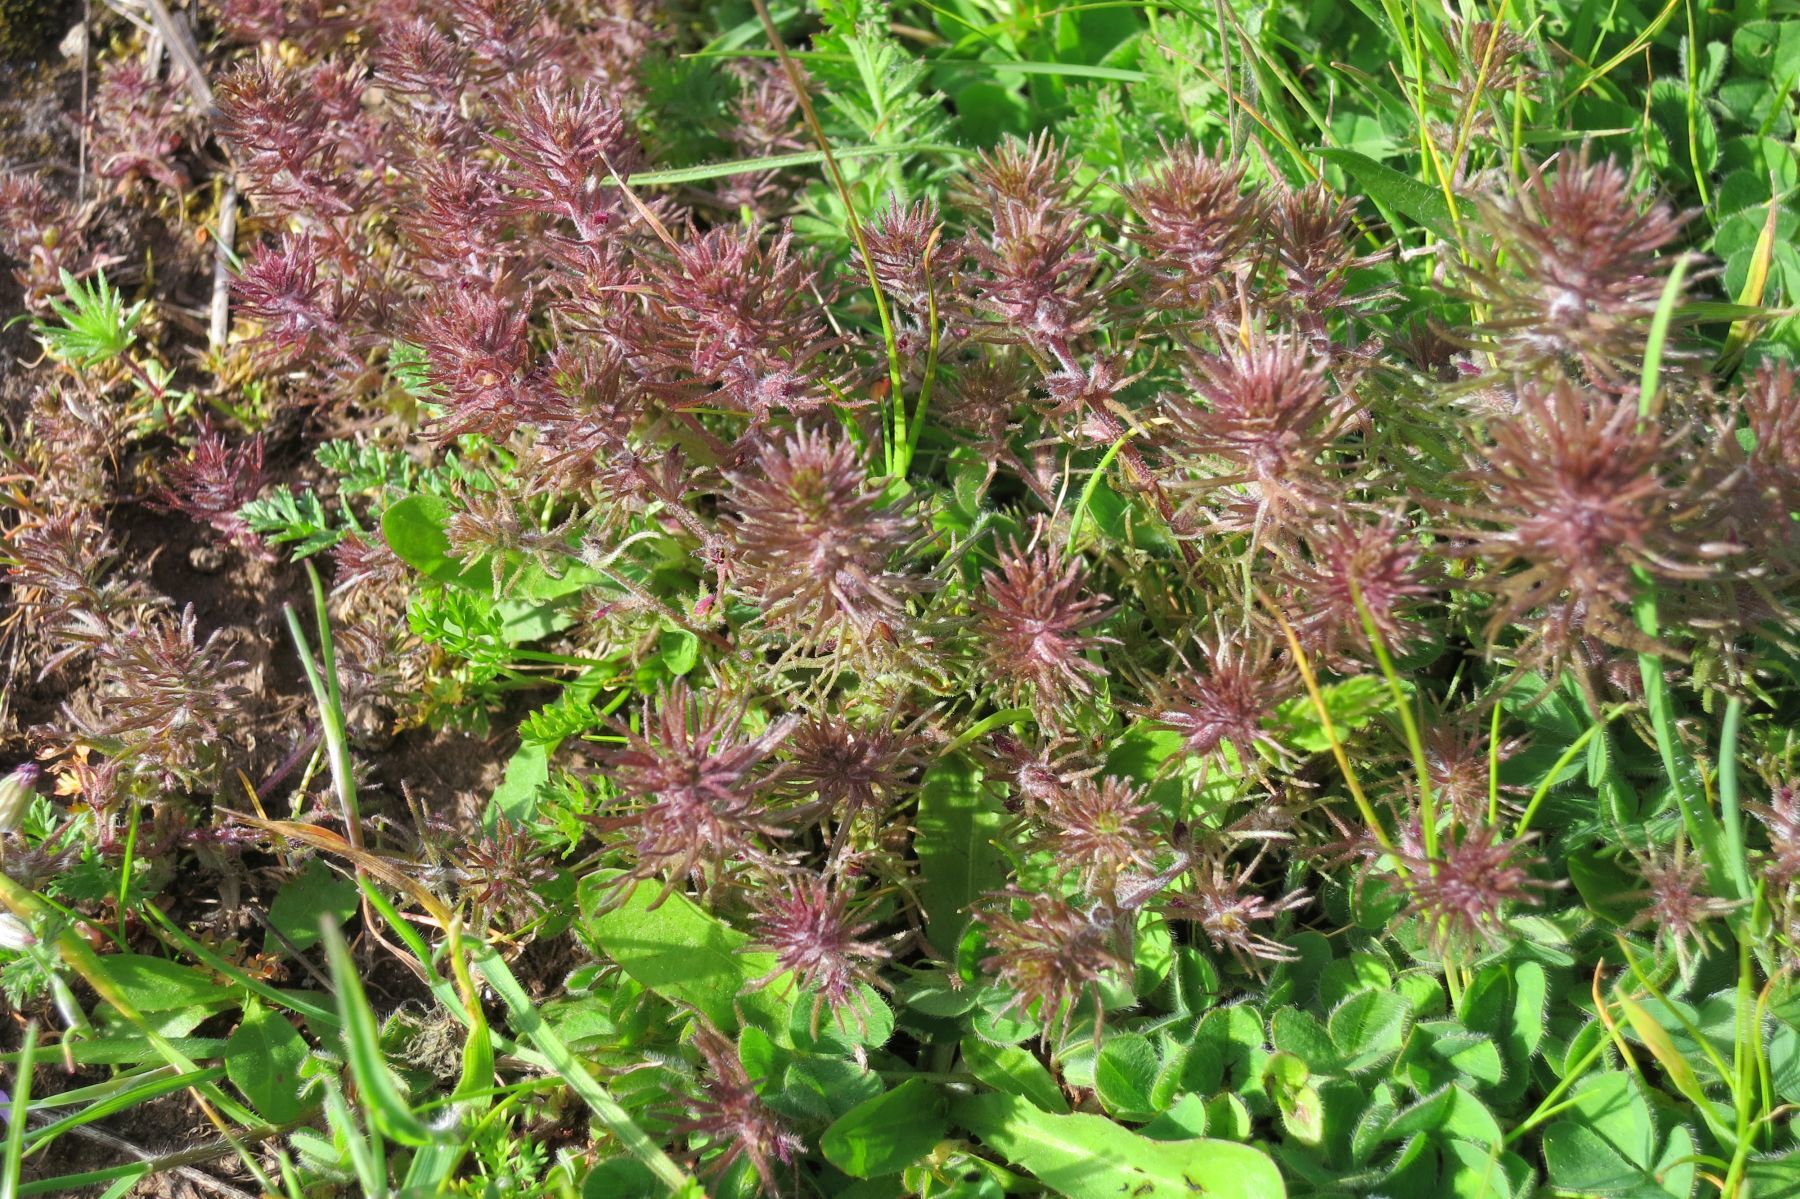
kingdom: Plantae
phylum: Tracheophyta
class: Magnoliopsida
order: Lamiales
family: Orobanchaceae
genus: Triphysaria
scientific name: Triphysaria pusilla
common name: Dwarf false owl-clover
